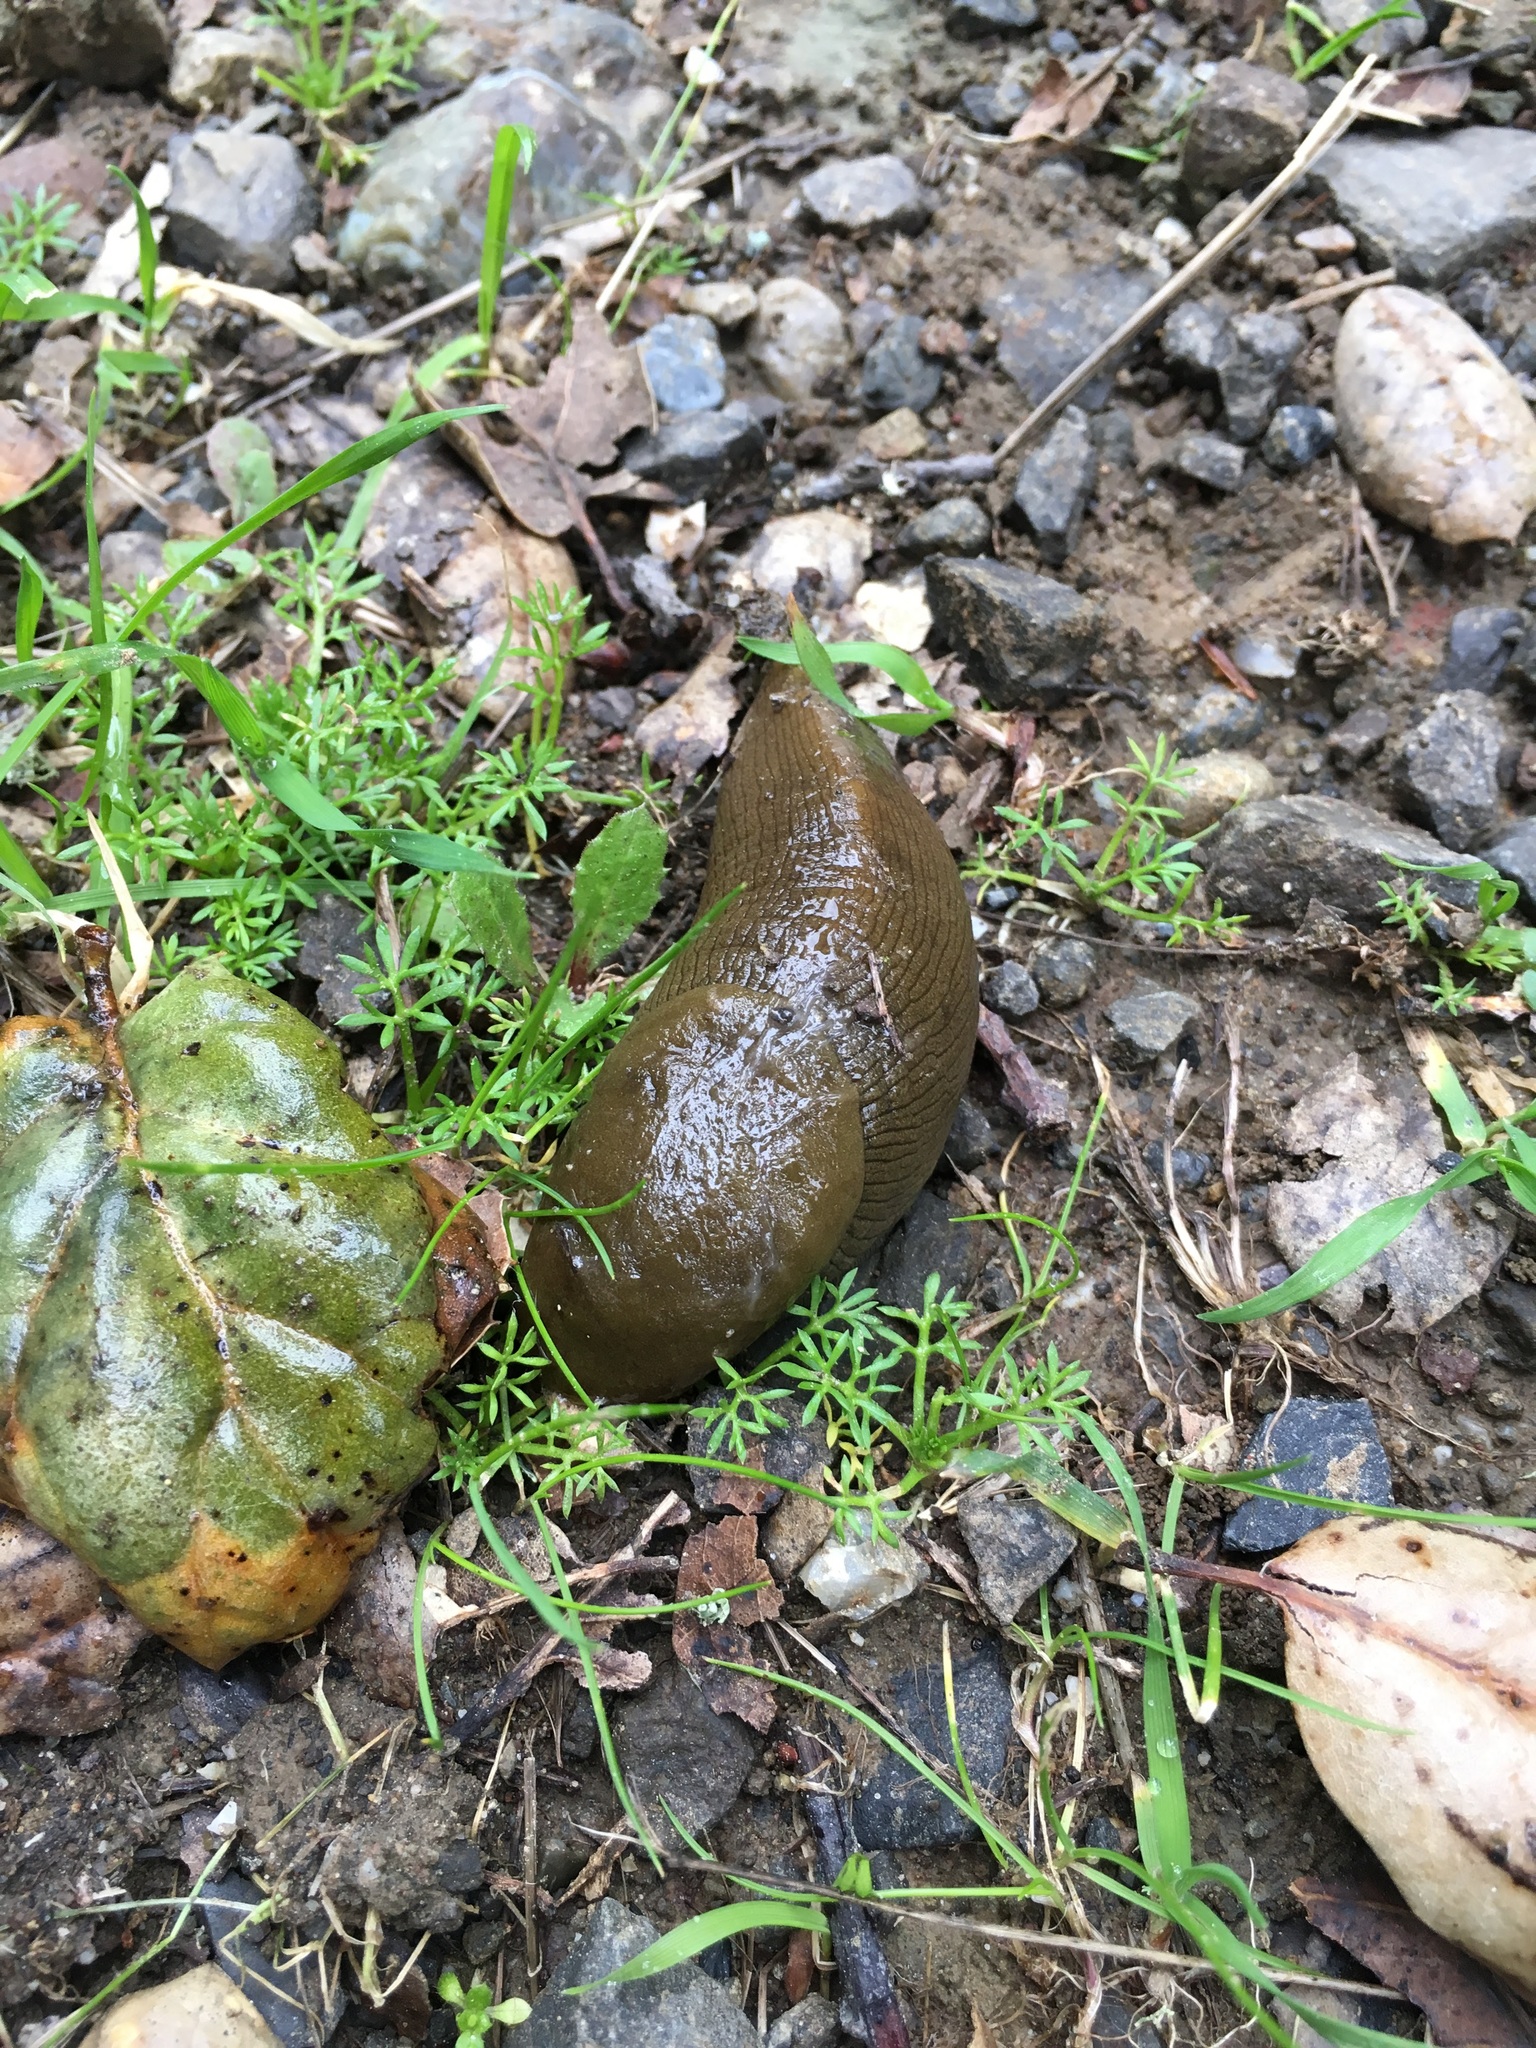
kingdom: Animalia
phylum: Mollusca
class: Gastropoda
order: Stylommatophora
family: Ariolimacidae
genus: Ariolimax
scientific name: Ariolimax buttoni
